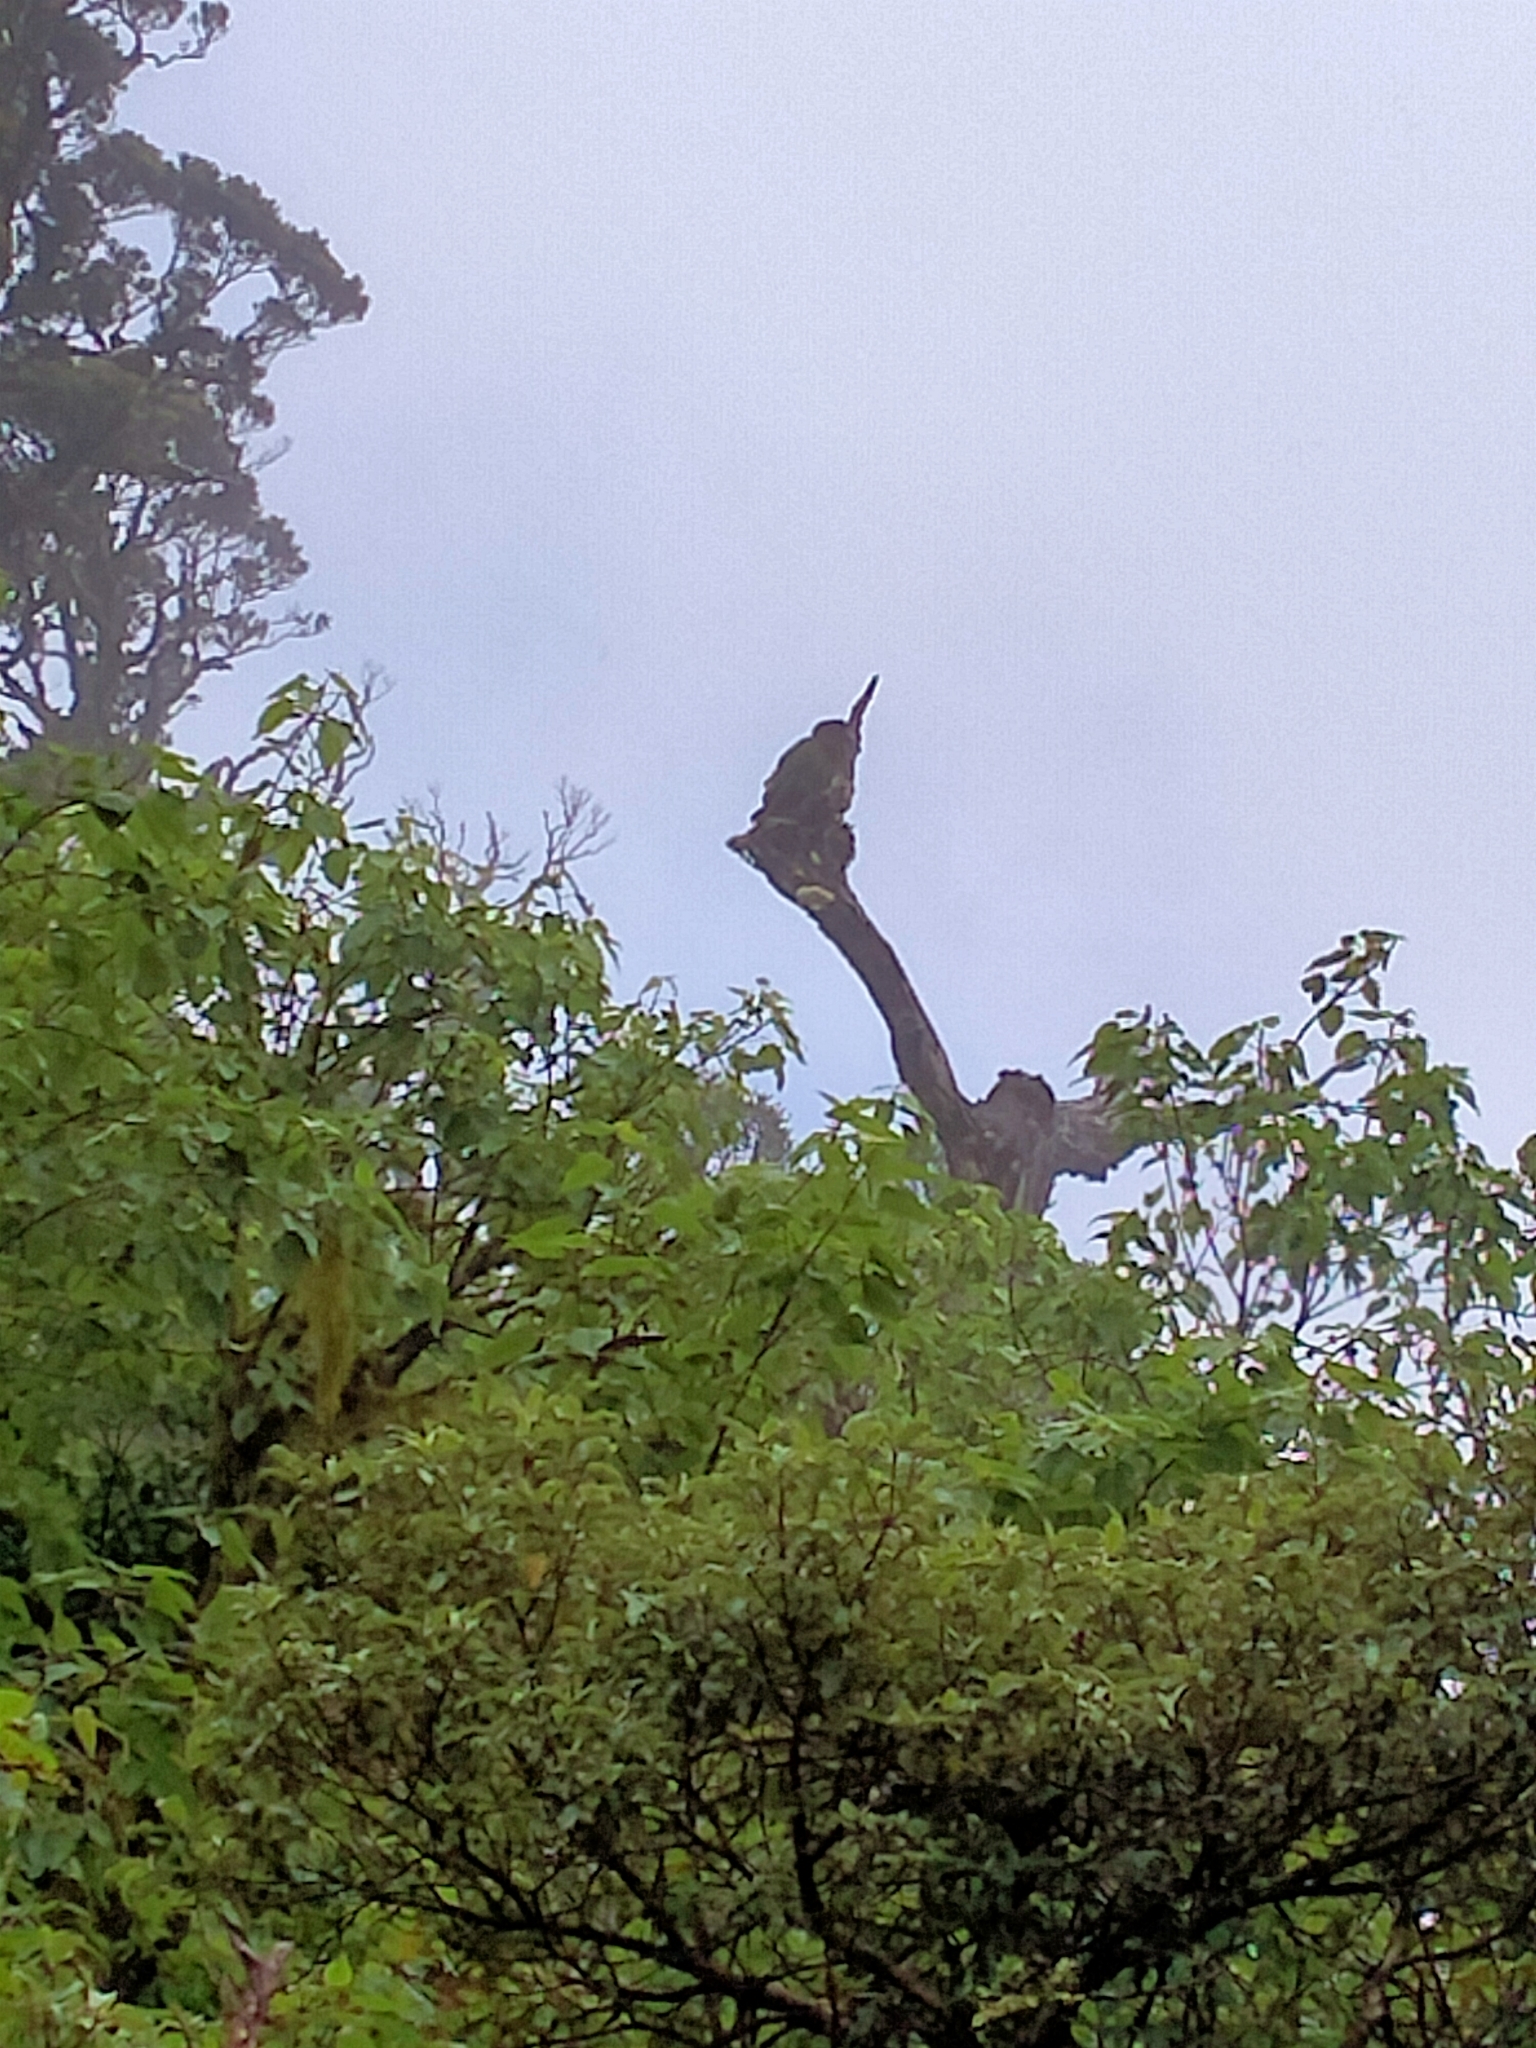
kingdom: Animalia
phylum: Chordata
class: Aves
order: Psittaciformes
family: Psittacidae
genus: Nestor
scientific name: Nestor notabilis
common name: Kea
